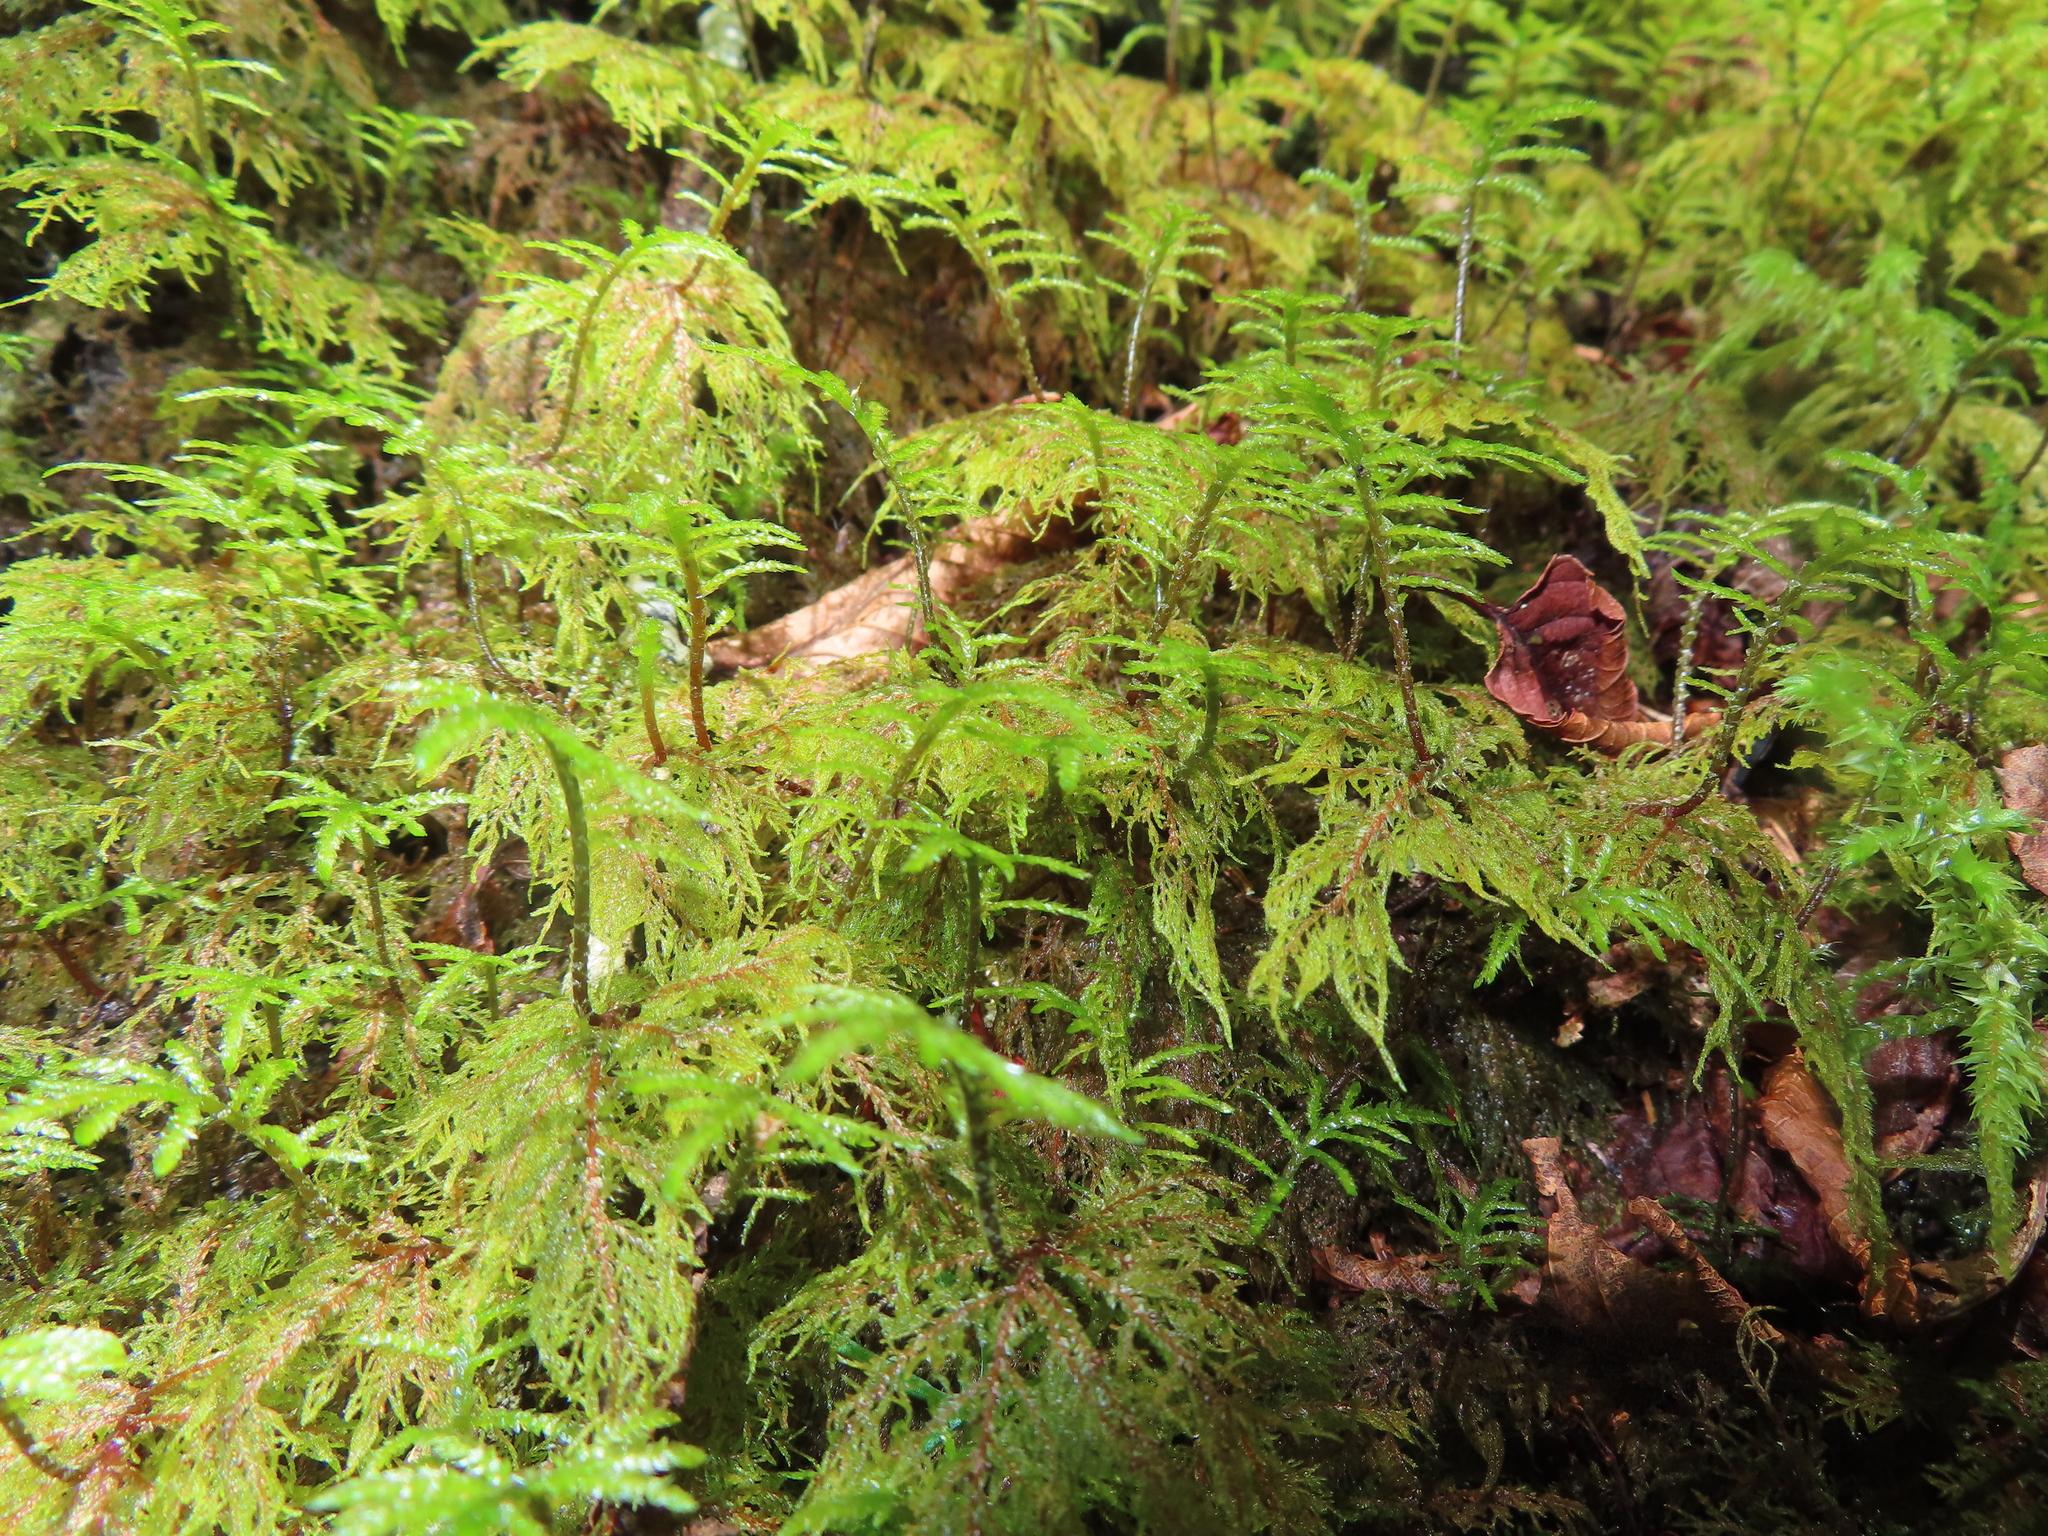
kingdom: Plantae
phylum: Bryophyta
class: Bryopsida
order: Hypnales
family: Hylocomiaceae
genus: Hylocomium
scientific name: Hylocomium splendens
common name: Stairstep moss
